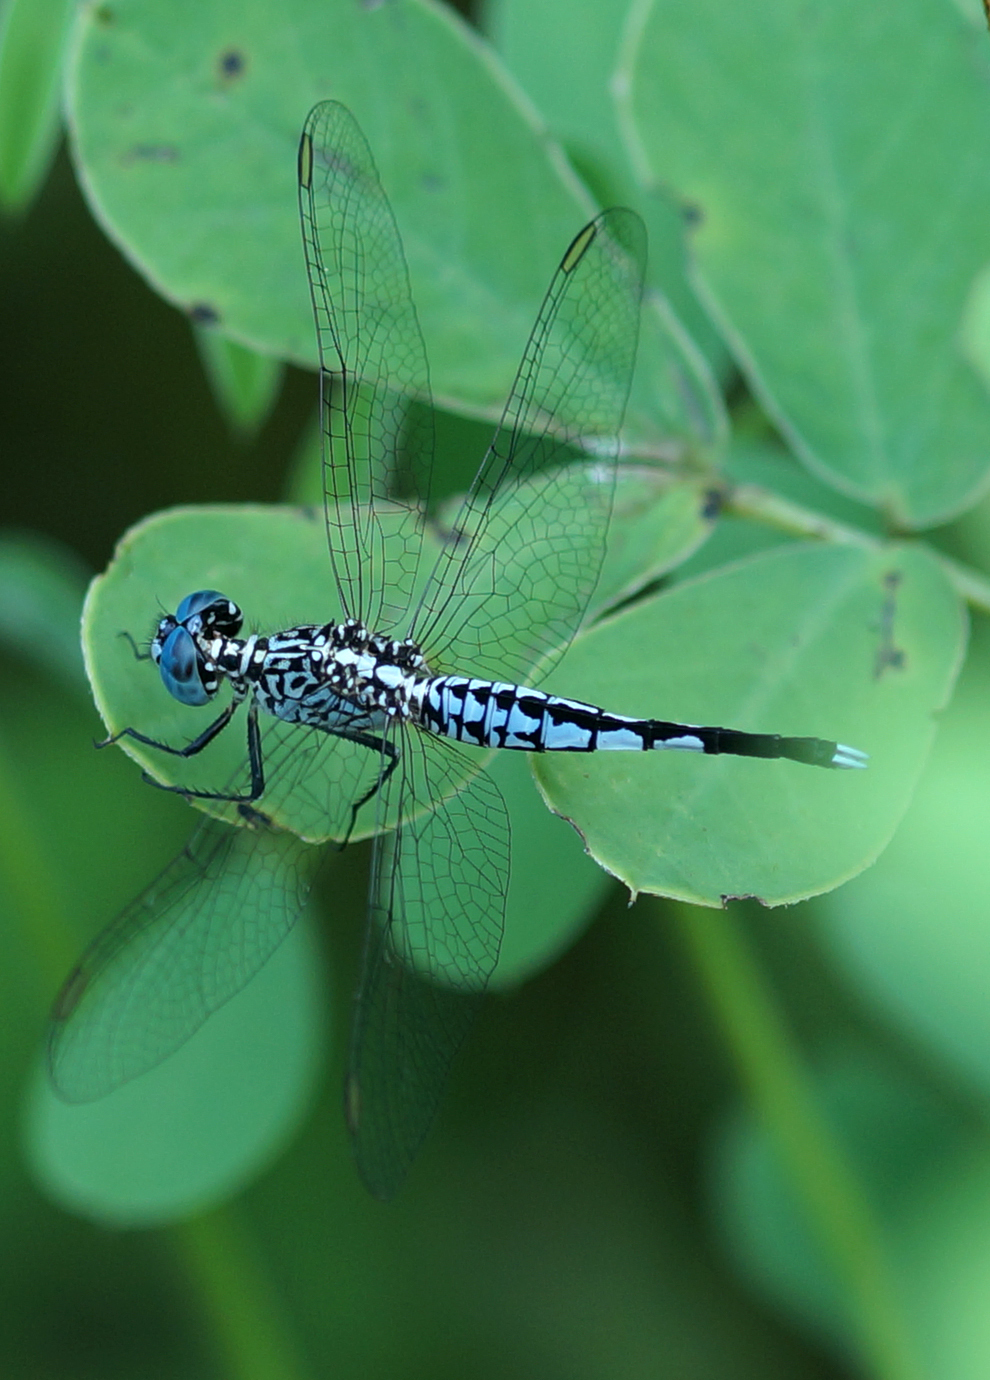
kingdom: Animalia
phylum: Arthropoda
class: Insecta
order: Odonata
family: Libellulidae
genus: Acisoma
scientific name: Acisoma panorpoides
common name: Asian pintail
